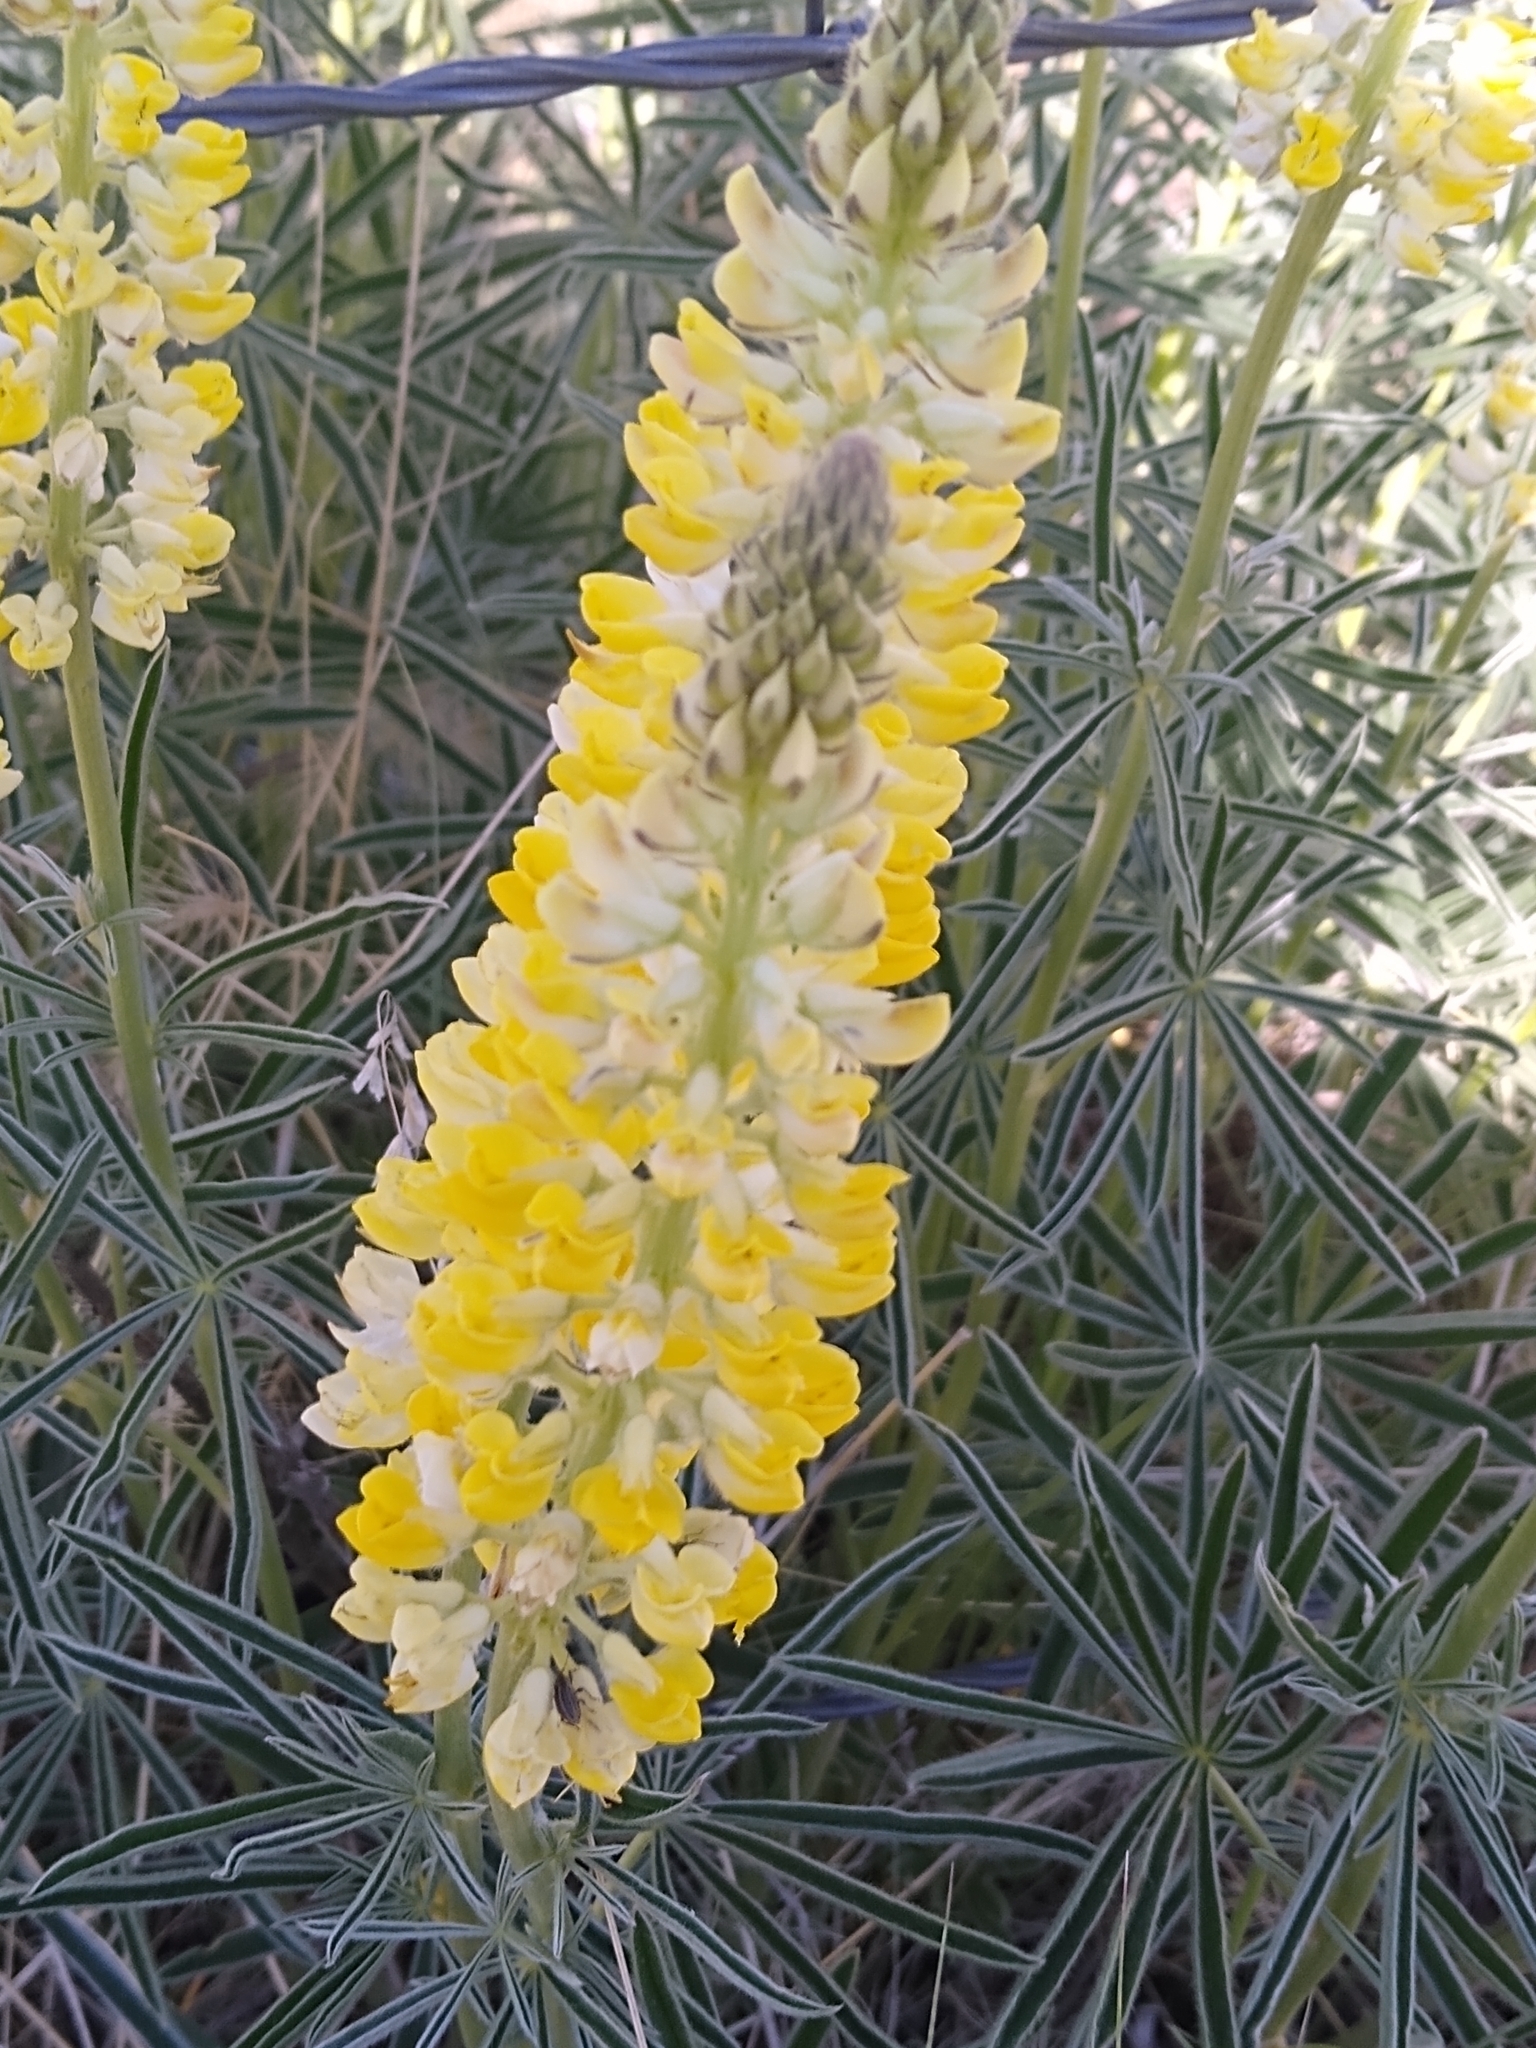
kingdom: Plantae
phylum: Tracheophyta
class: Magnoliopsida
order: Fabales
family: Fabaceae
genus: Lupinus
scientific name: Lupinus sulphureus
